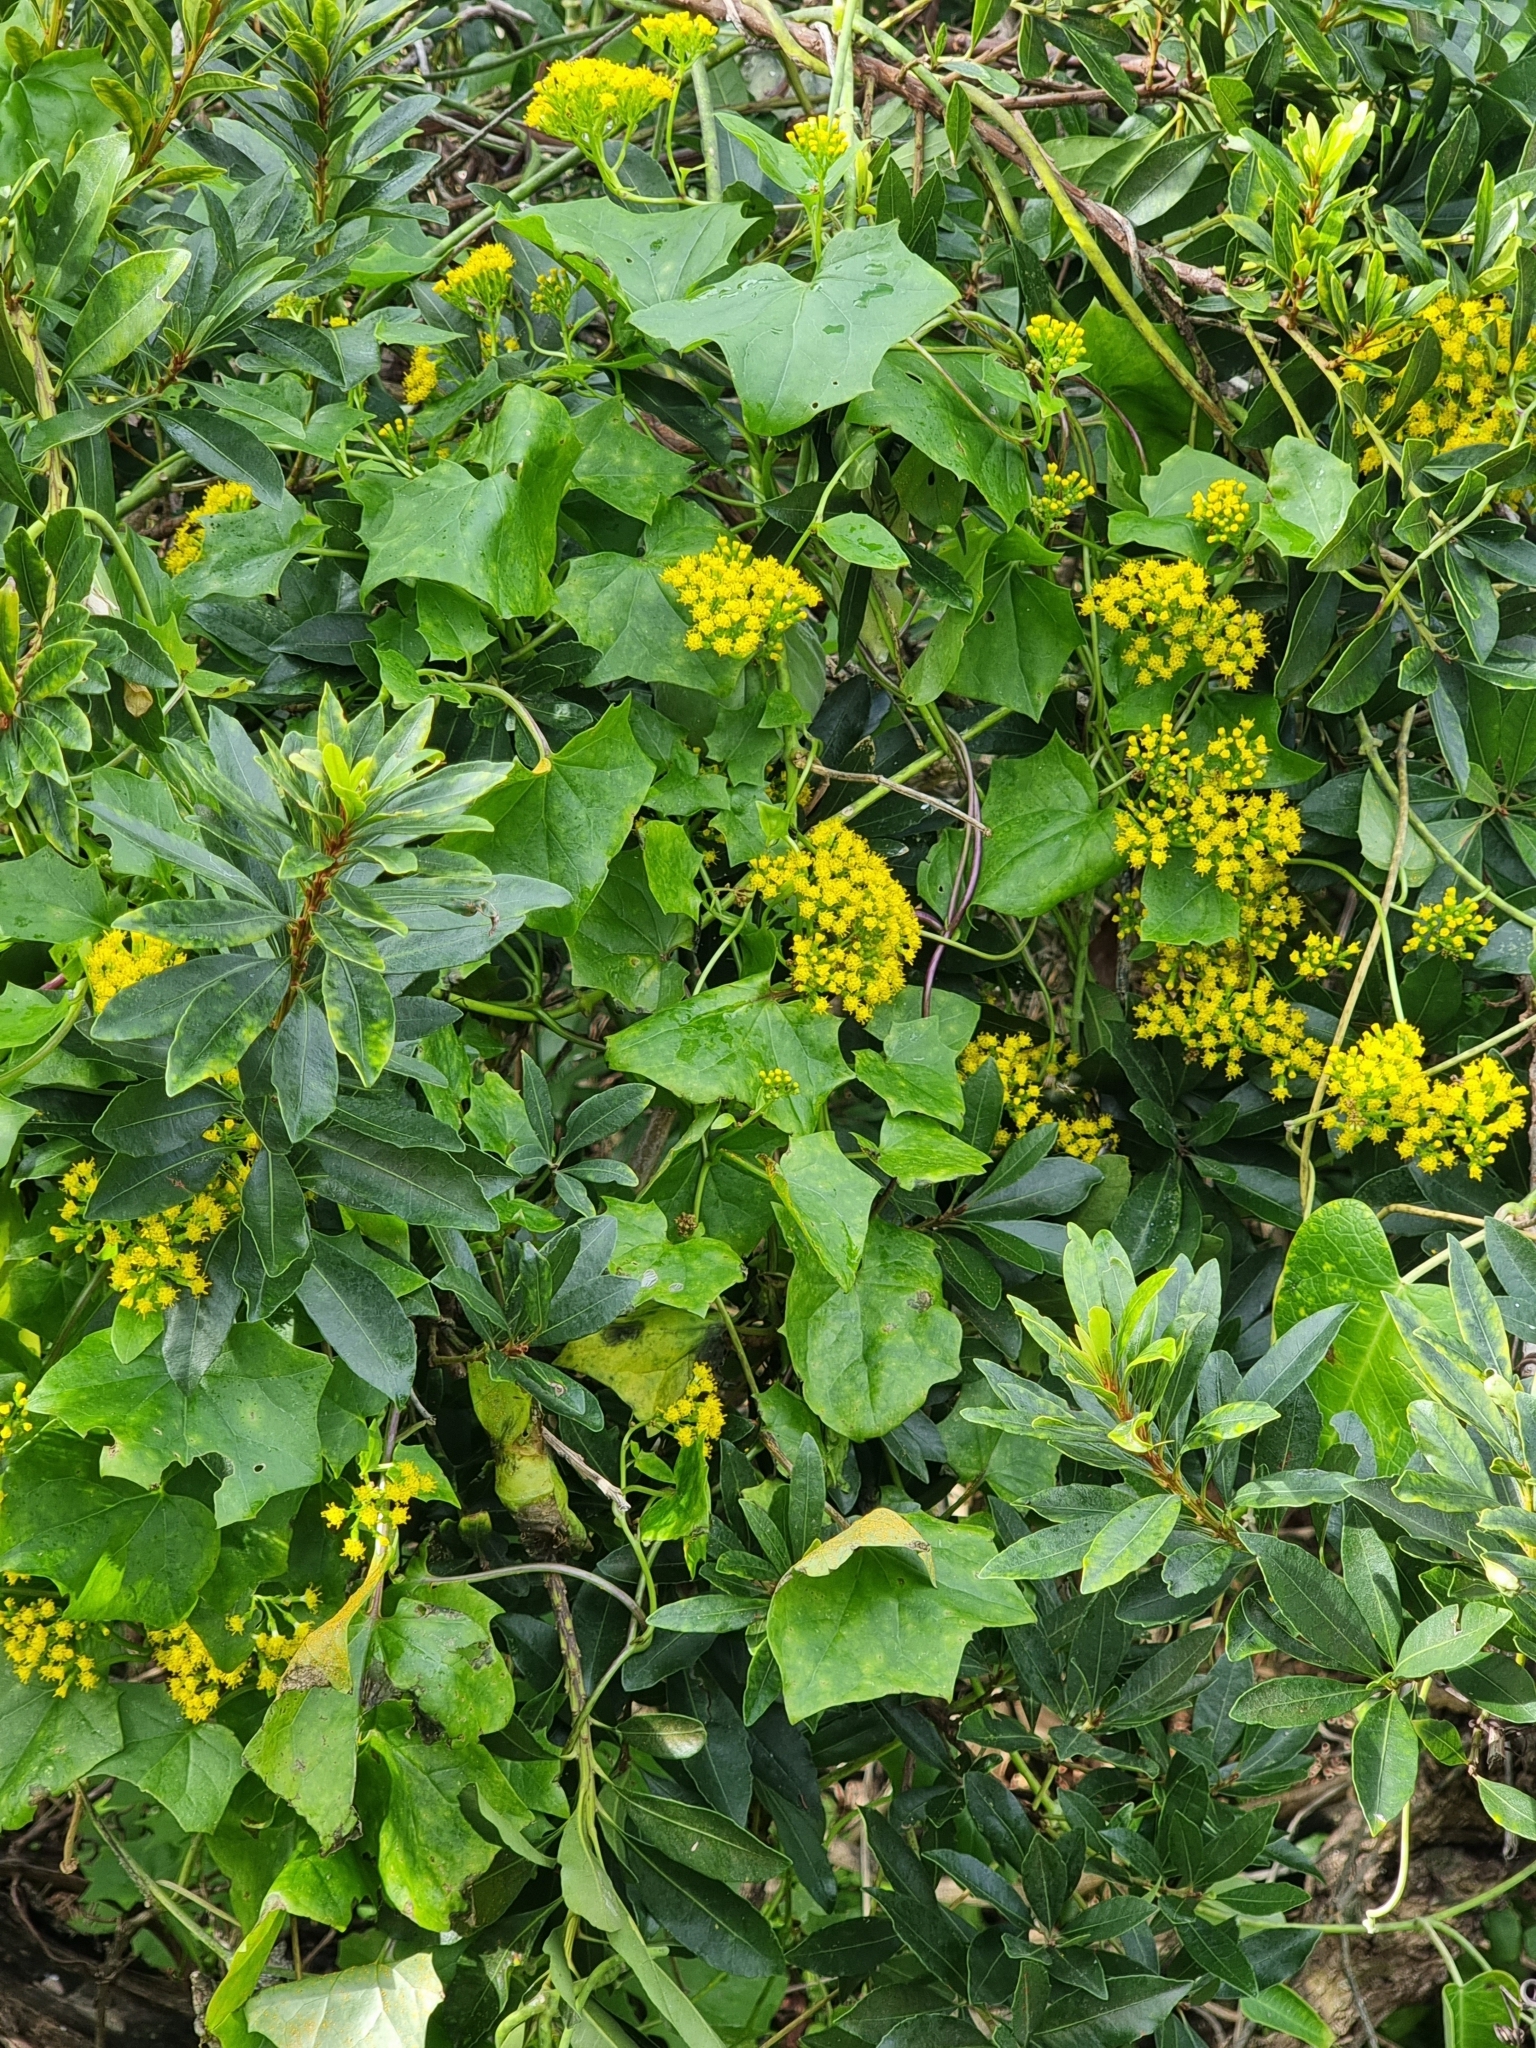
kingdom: Plantae
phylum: Tracheophyta
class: Magnoliopsida
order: Asterales
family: Asteraceae
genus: Delairea
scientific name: Delairea odorata
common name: Cape-ivy
